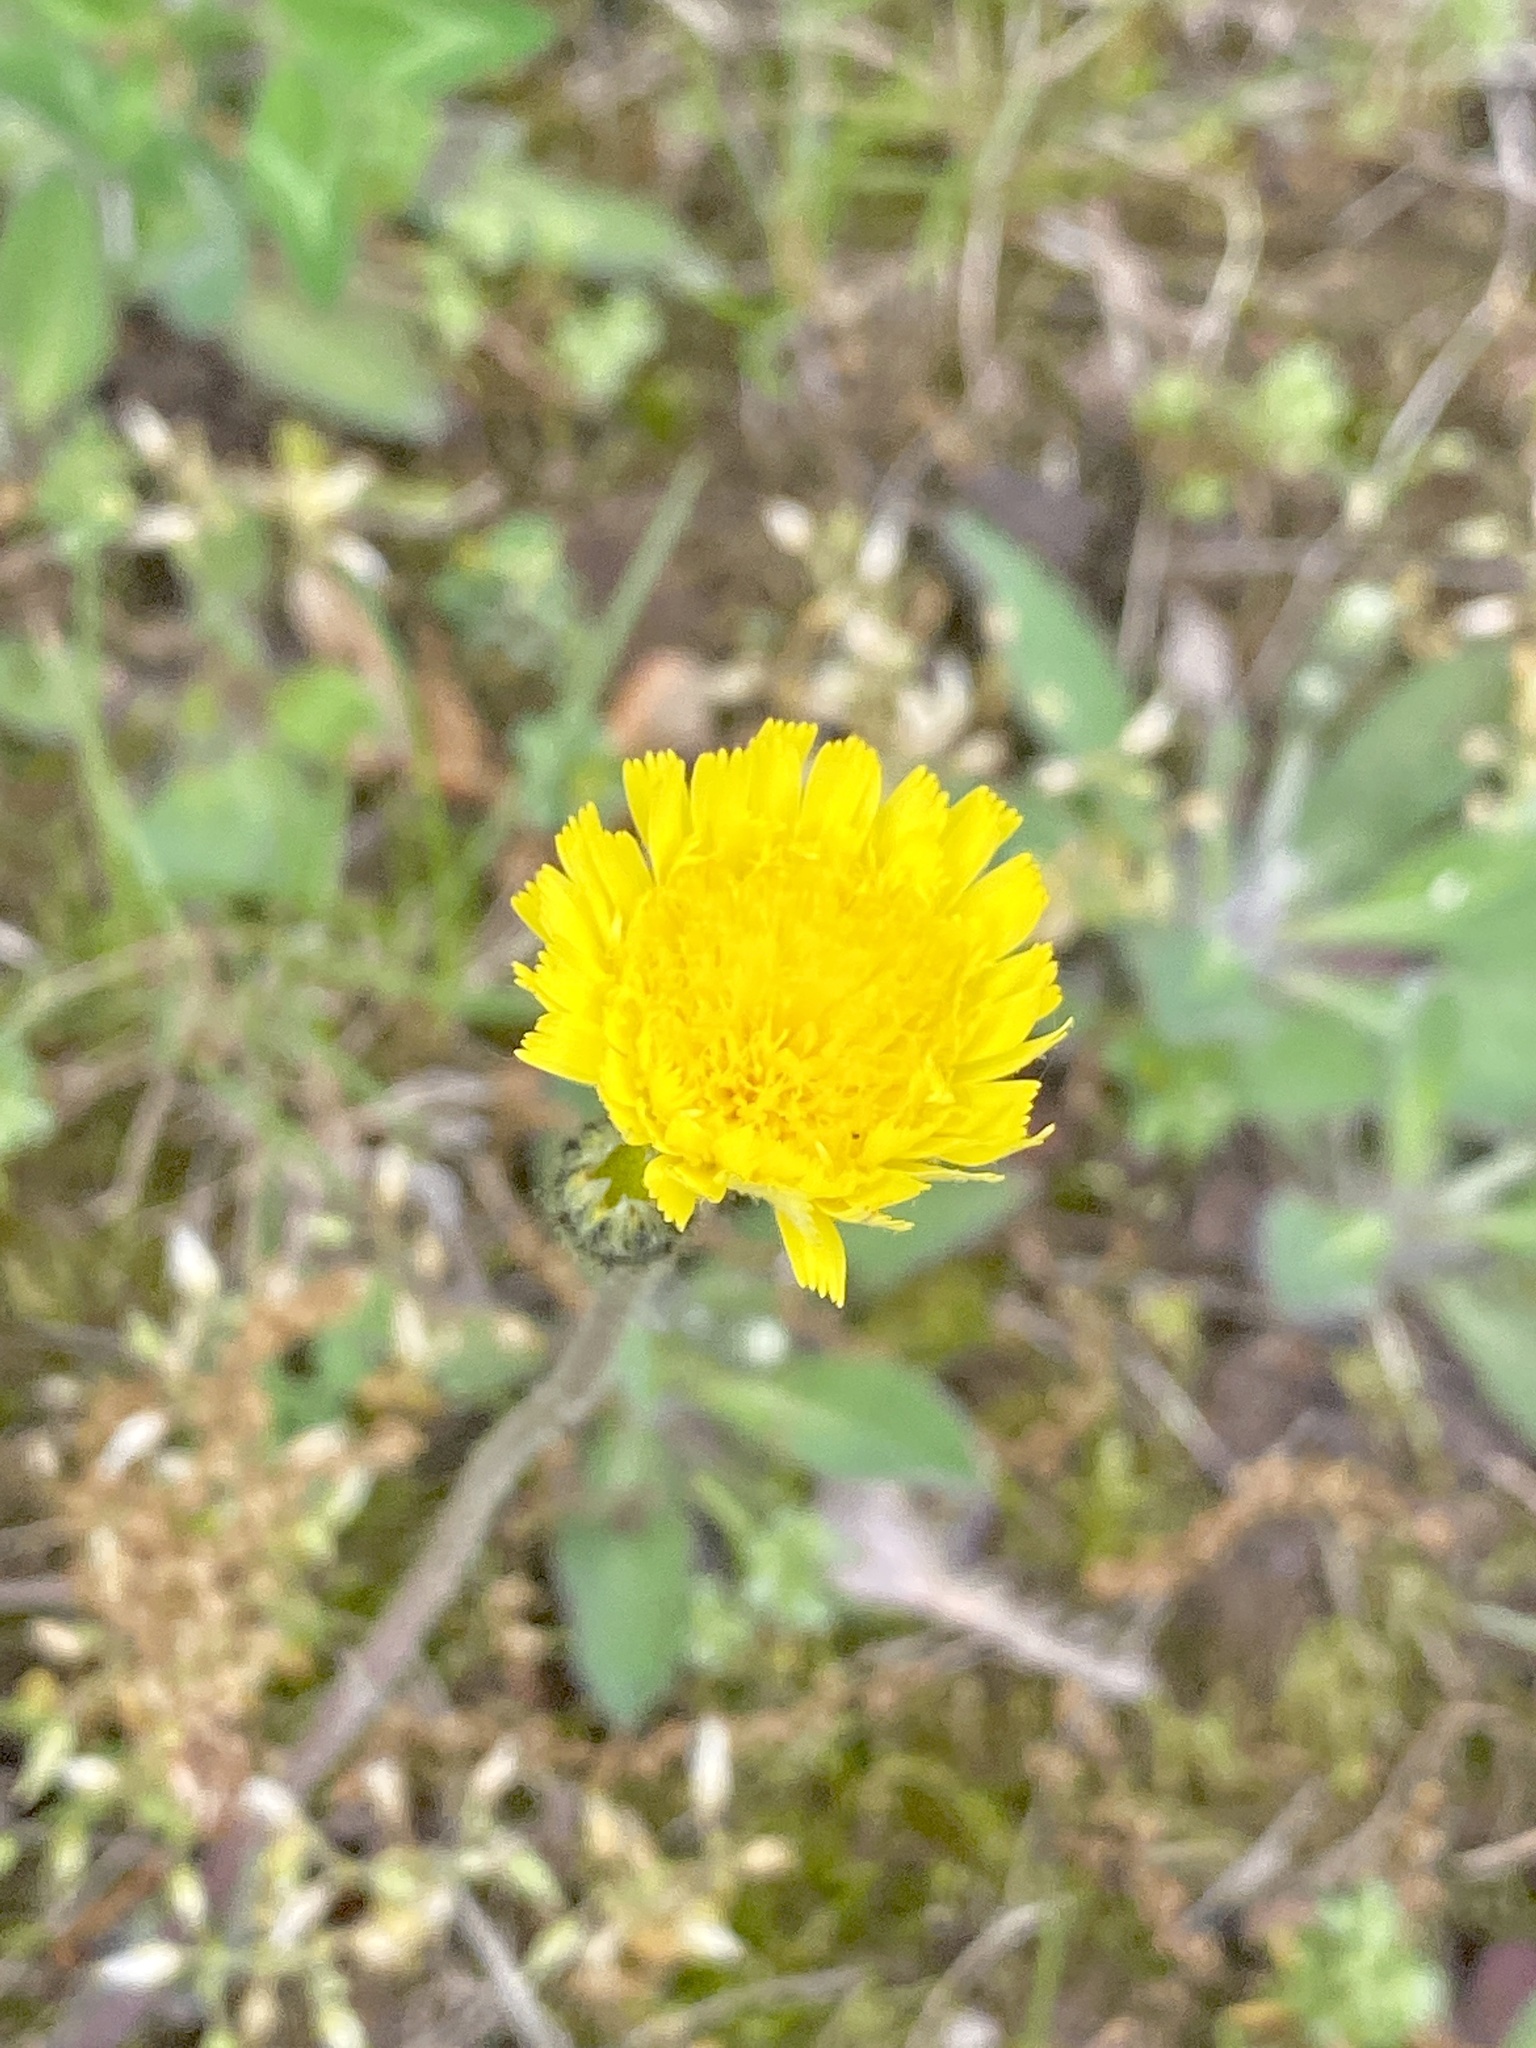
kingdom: Plantae
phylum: Tracheophyta
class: Magnoliopsida
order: Asterales
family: Asteraceae
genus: Pilosella
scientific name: Pilosella caespitosa
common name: Yellow fox-and-cubs
